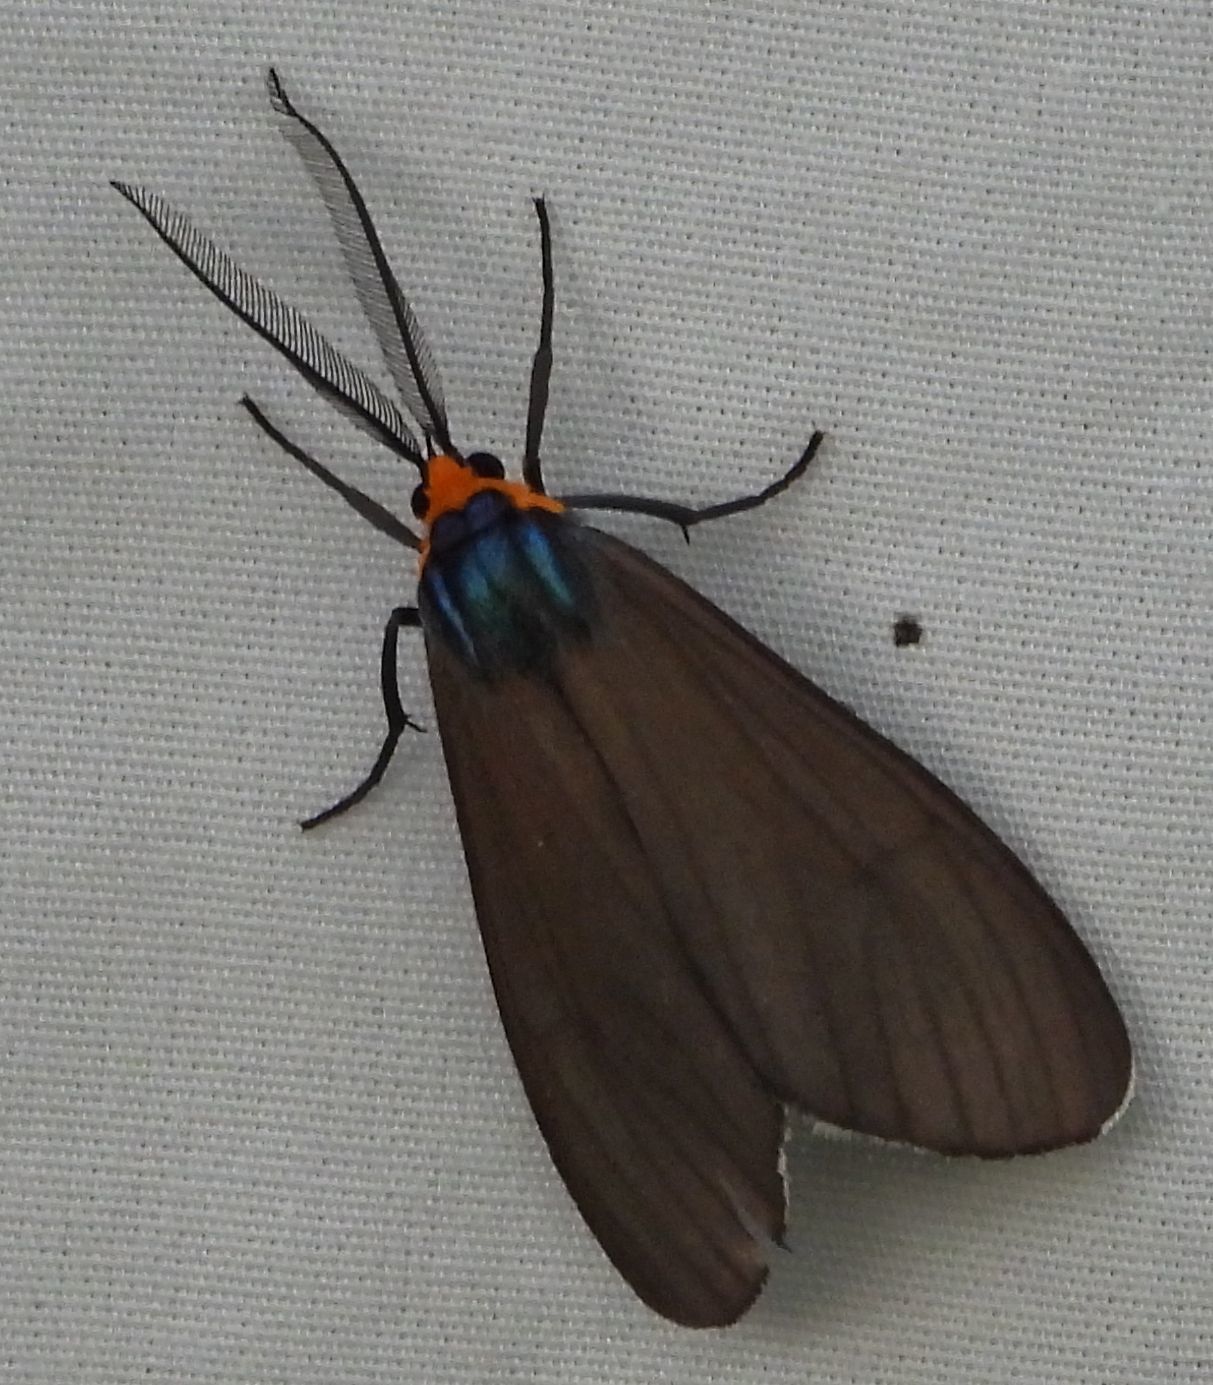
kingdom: Animalia
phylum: Arthropoda
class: Insecta
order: Lepidoptera
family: Erebidae
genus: Ctenucha
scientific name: Ctenucha virginica
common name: Virginia ctenucha moth
